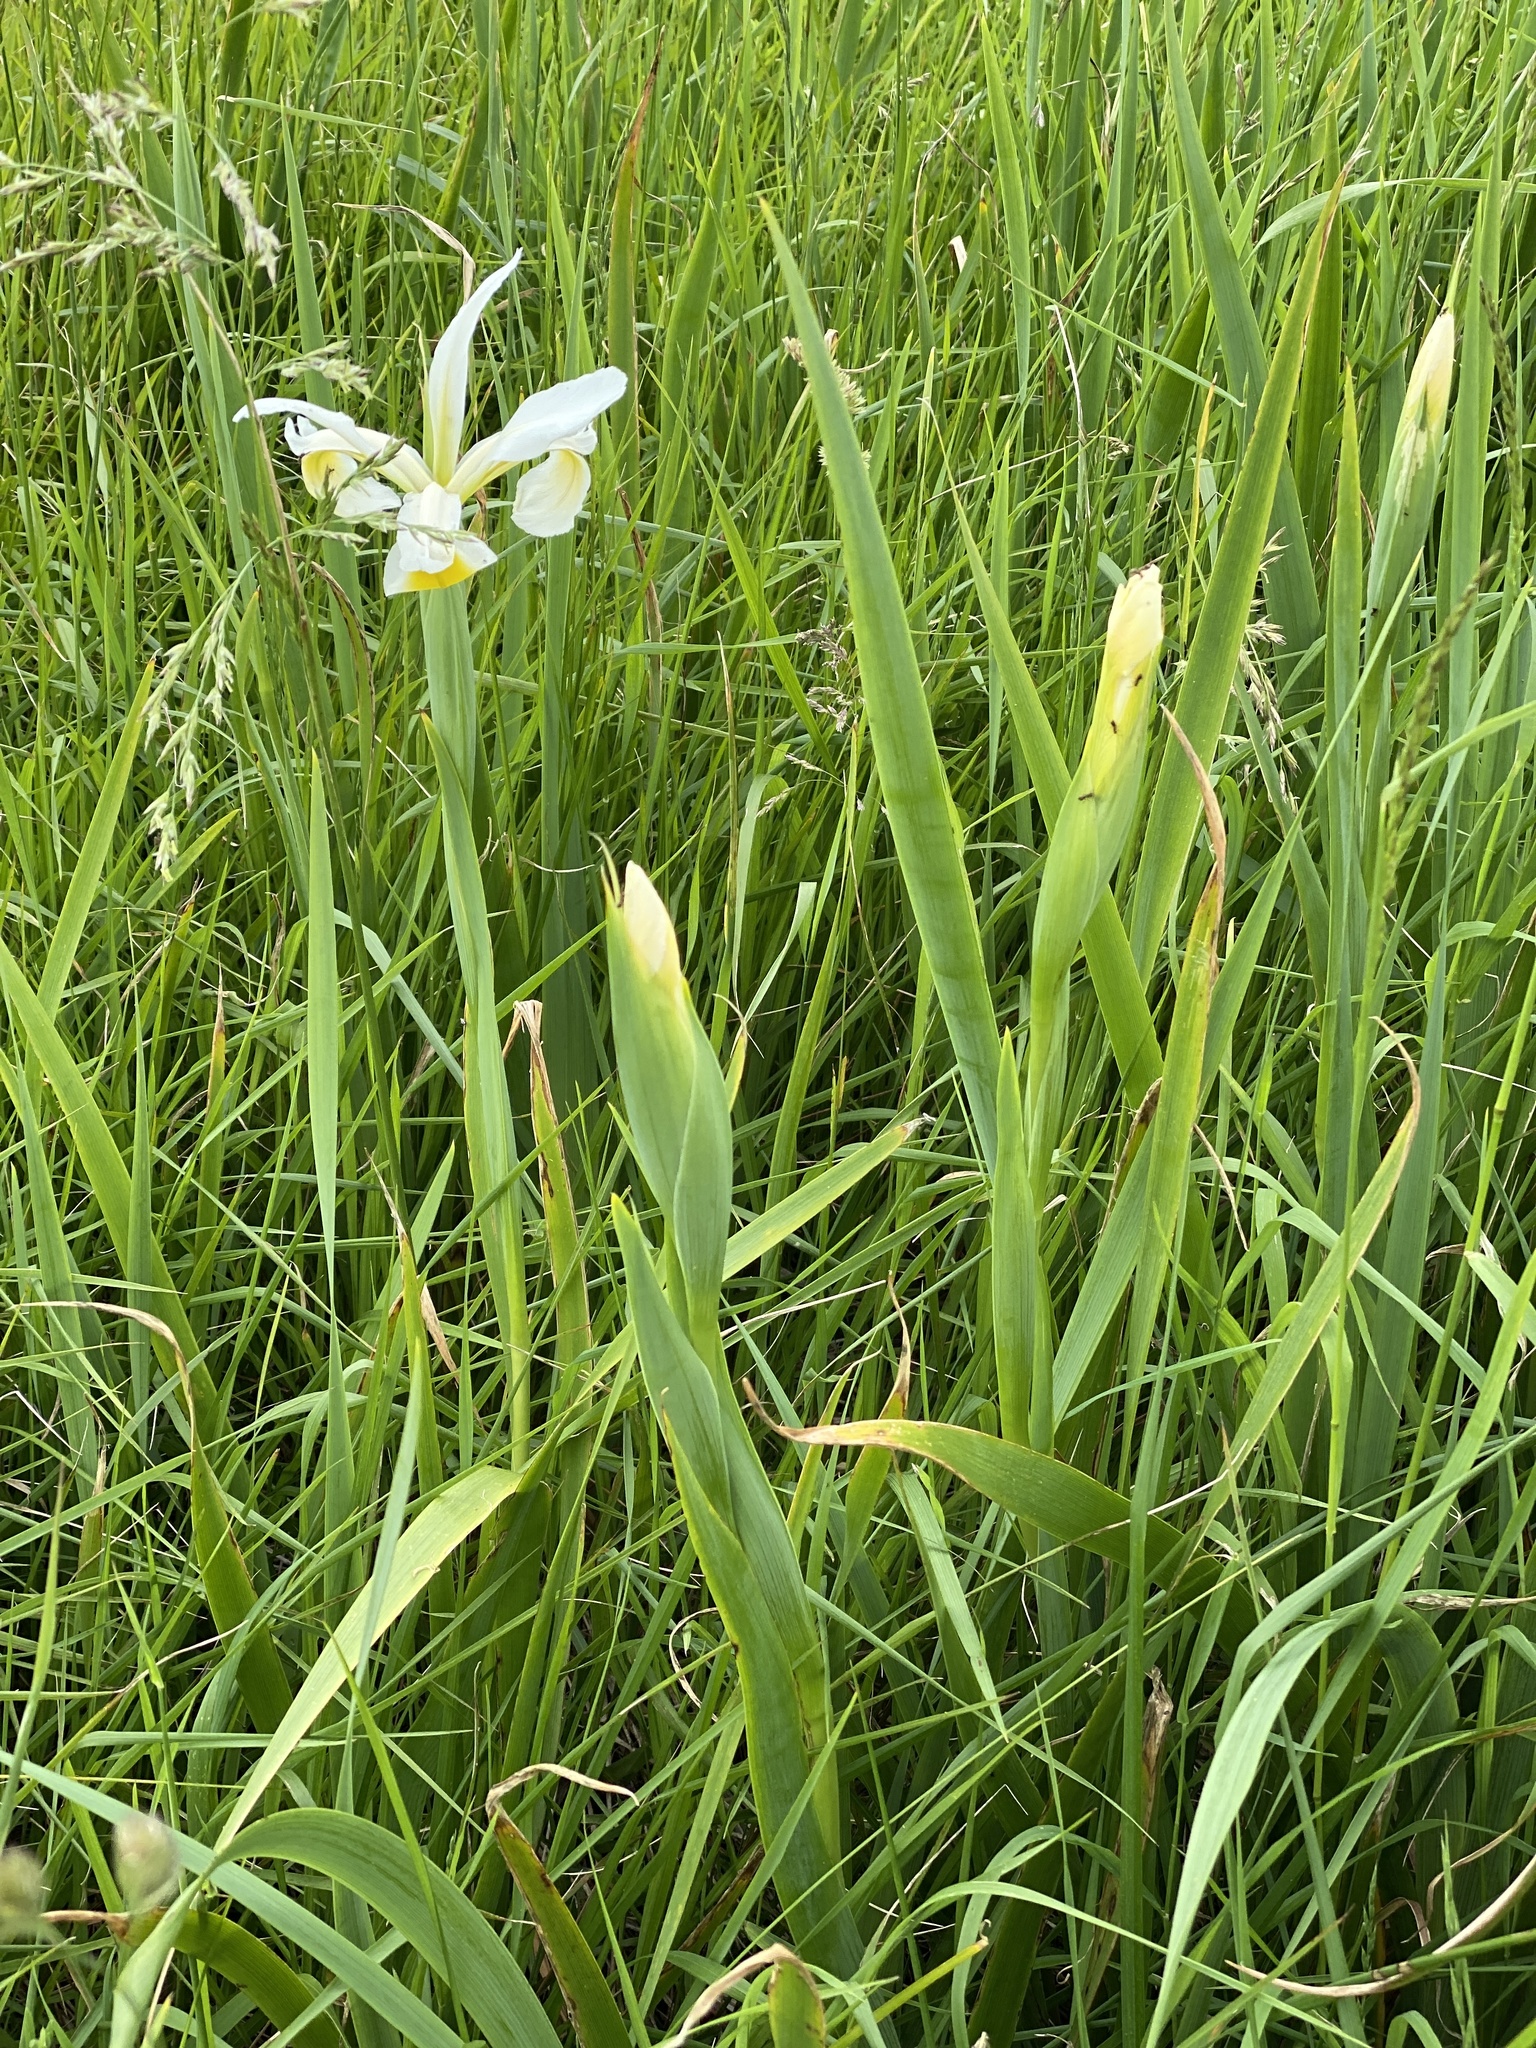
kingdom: Plantae
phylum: Tracheophyta
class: Liliopsida
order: Asparagales
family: Iridaceae
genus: Iris
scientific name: Iris orientalis
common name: Turkish iris
